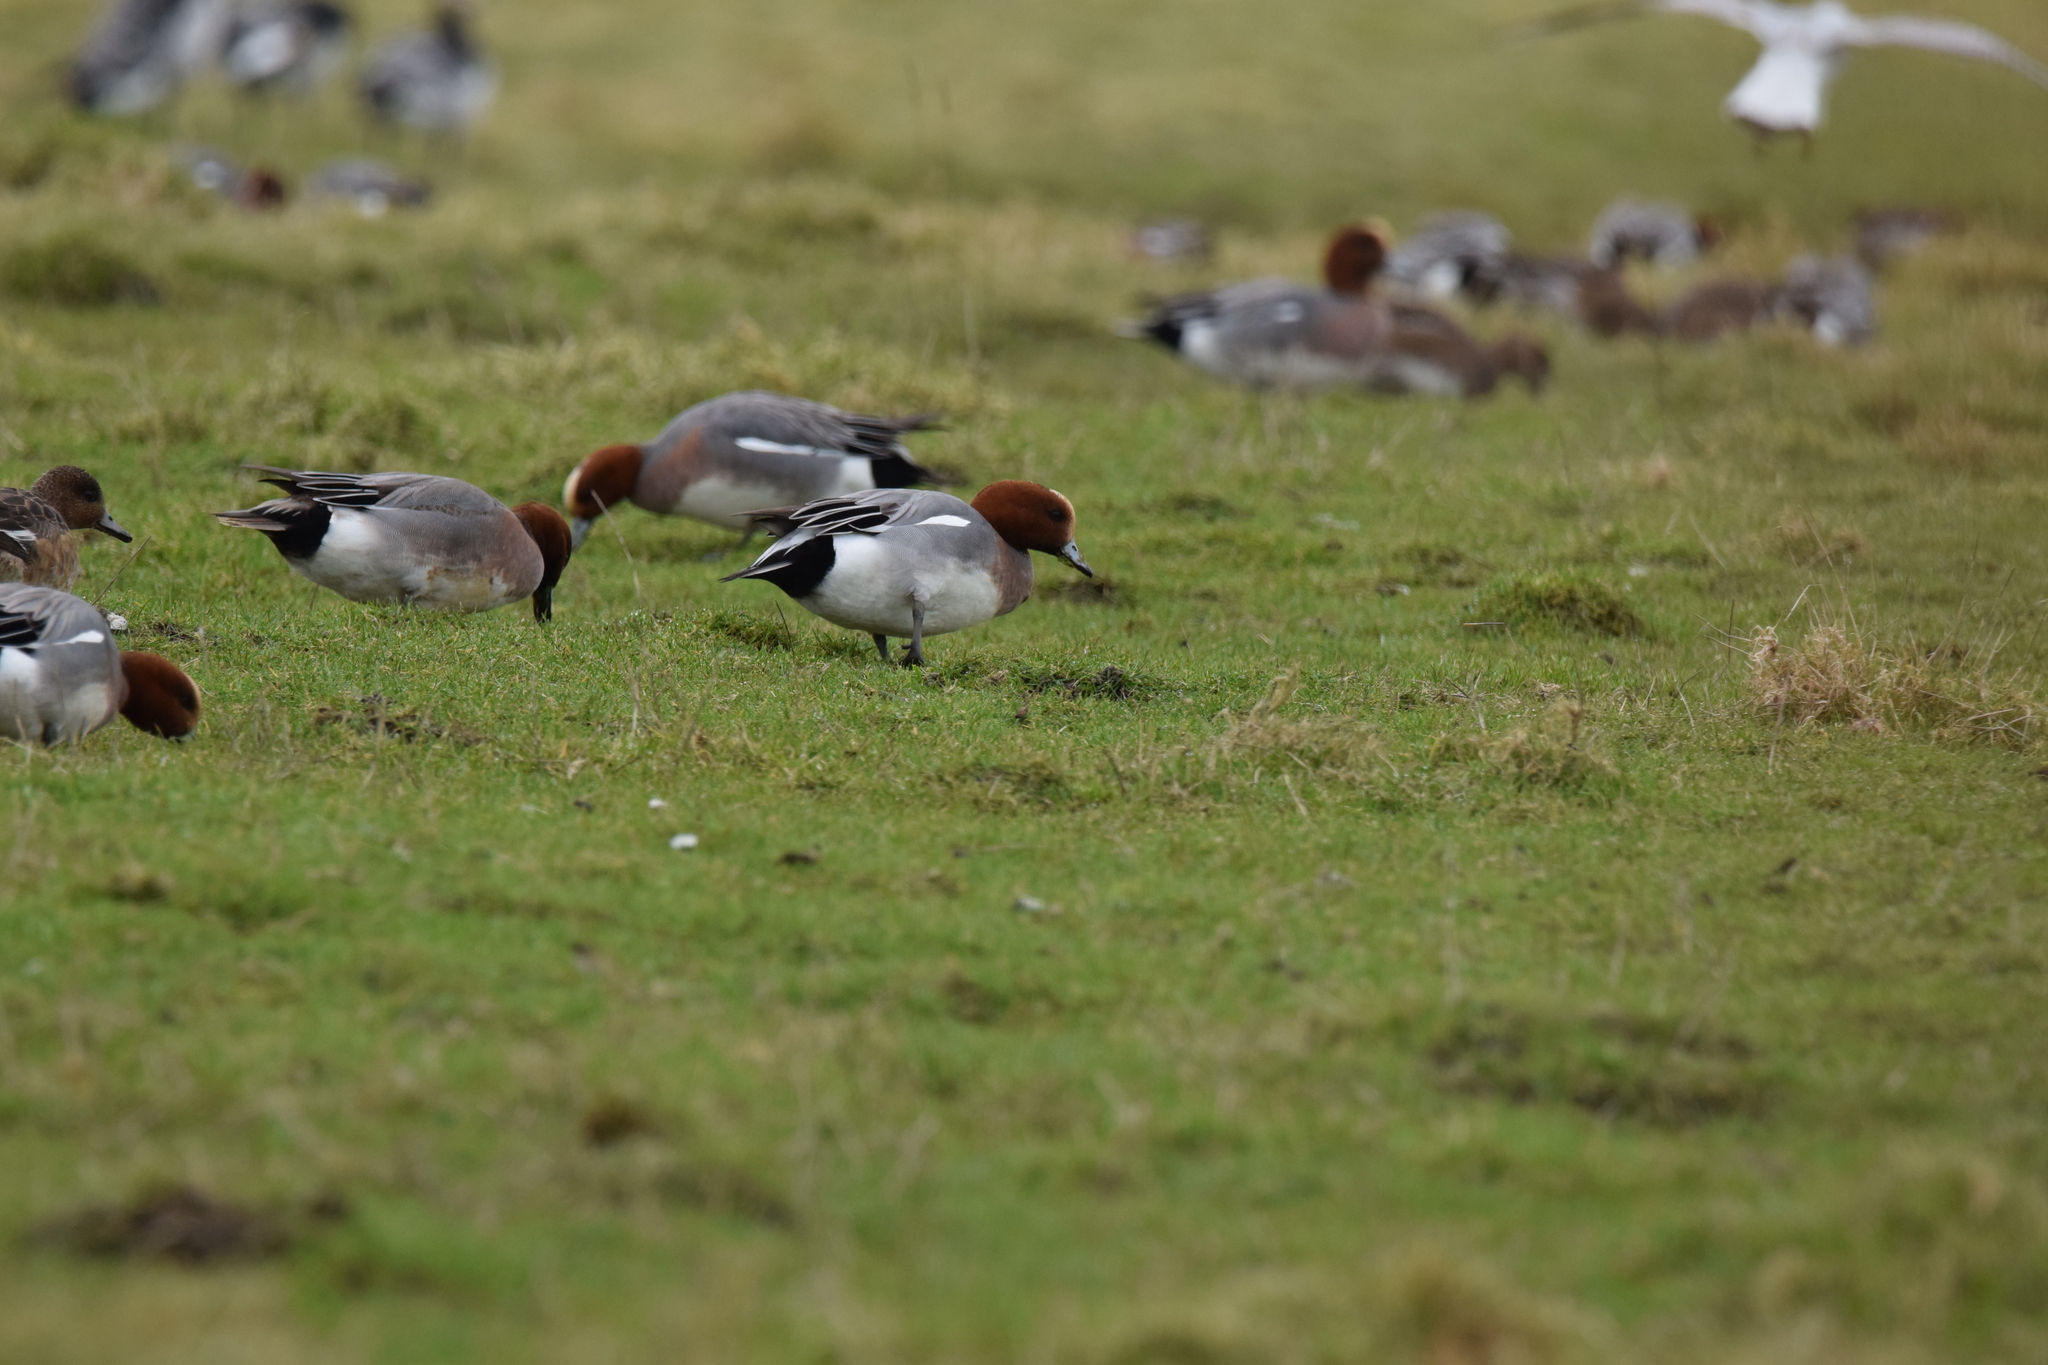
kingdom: Animalia
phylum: Chordata
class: Aves
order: Anseriformes
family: Anatidae
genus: Mareca
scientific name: Mareca penelope
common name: Eurasian wigeon
